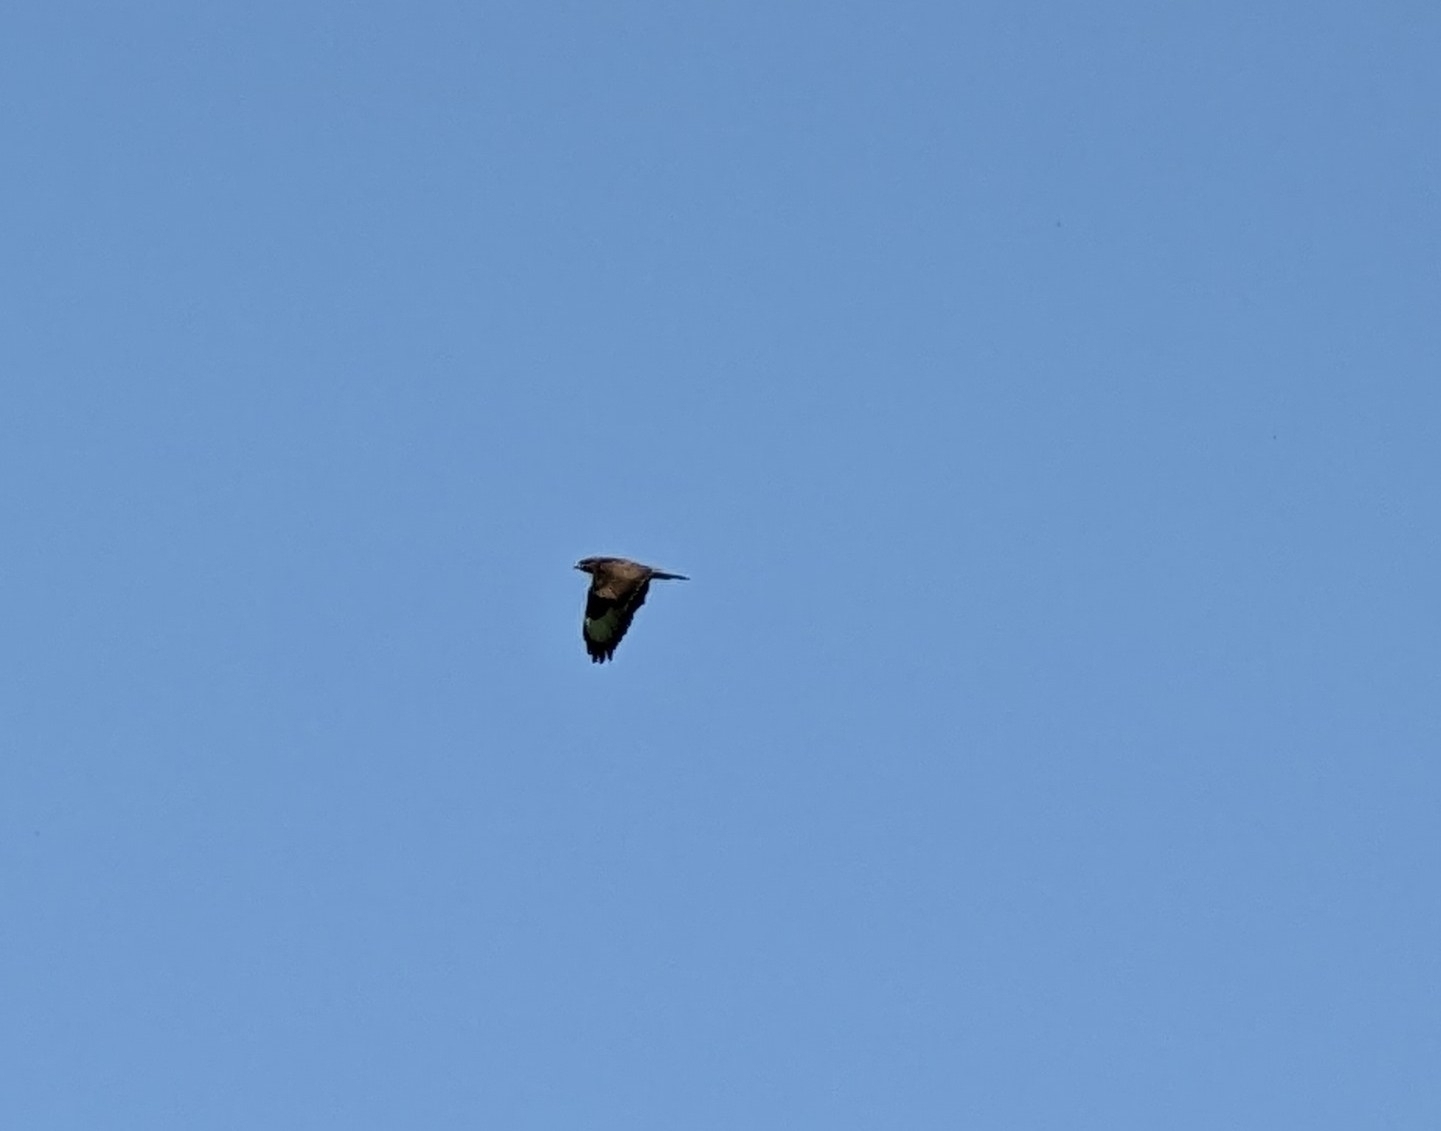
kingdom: Animalia
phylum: Chordata
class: Aves
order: Accipitriformes
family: Accipitridae
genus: Buteo
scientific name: Buteo buteo
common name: Common buzzard
